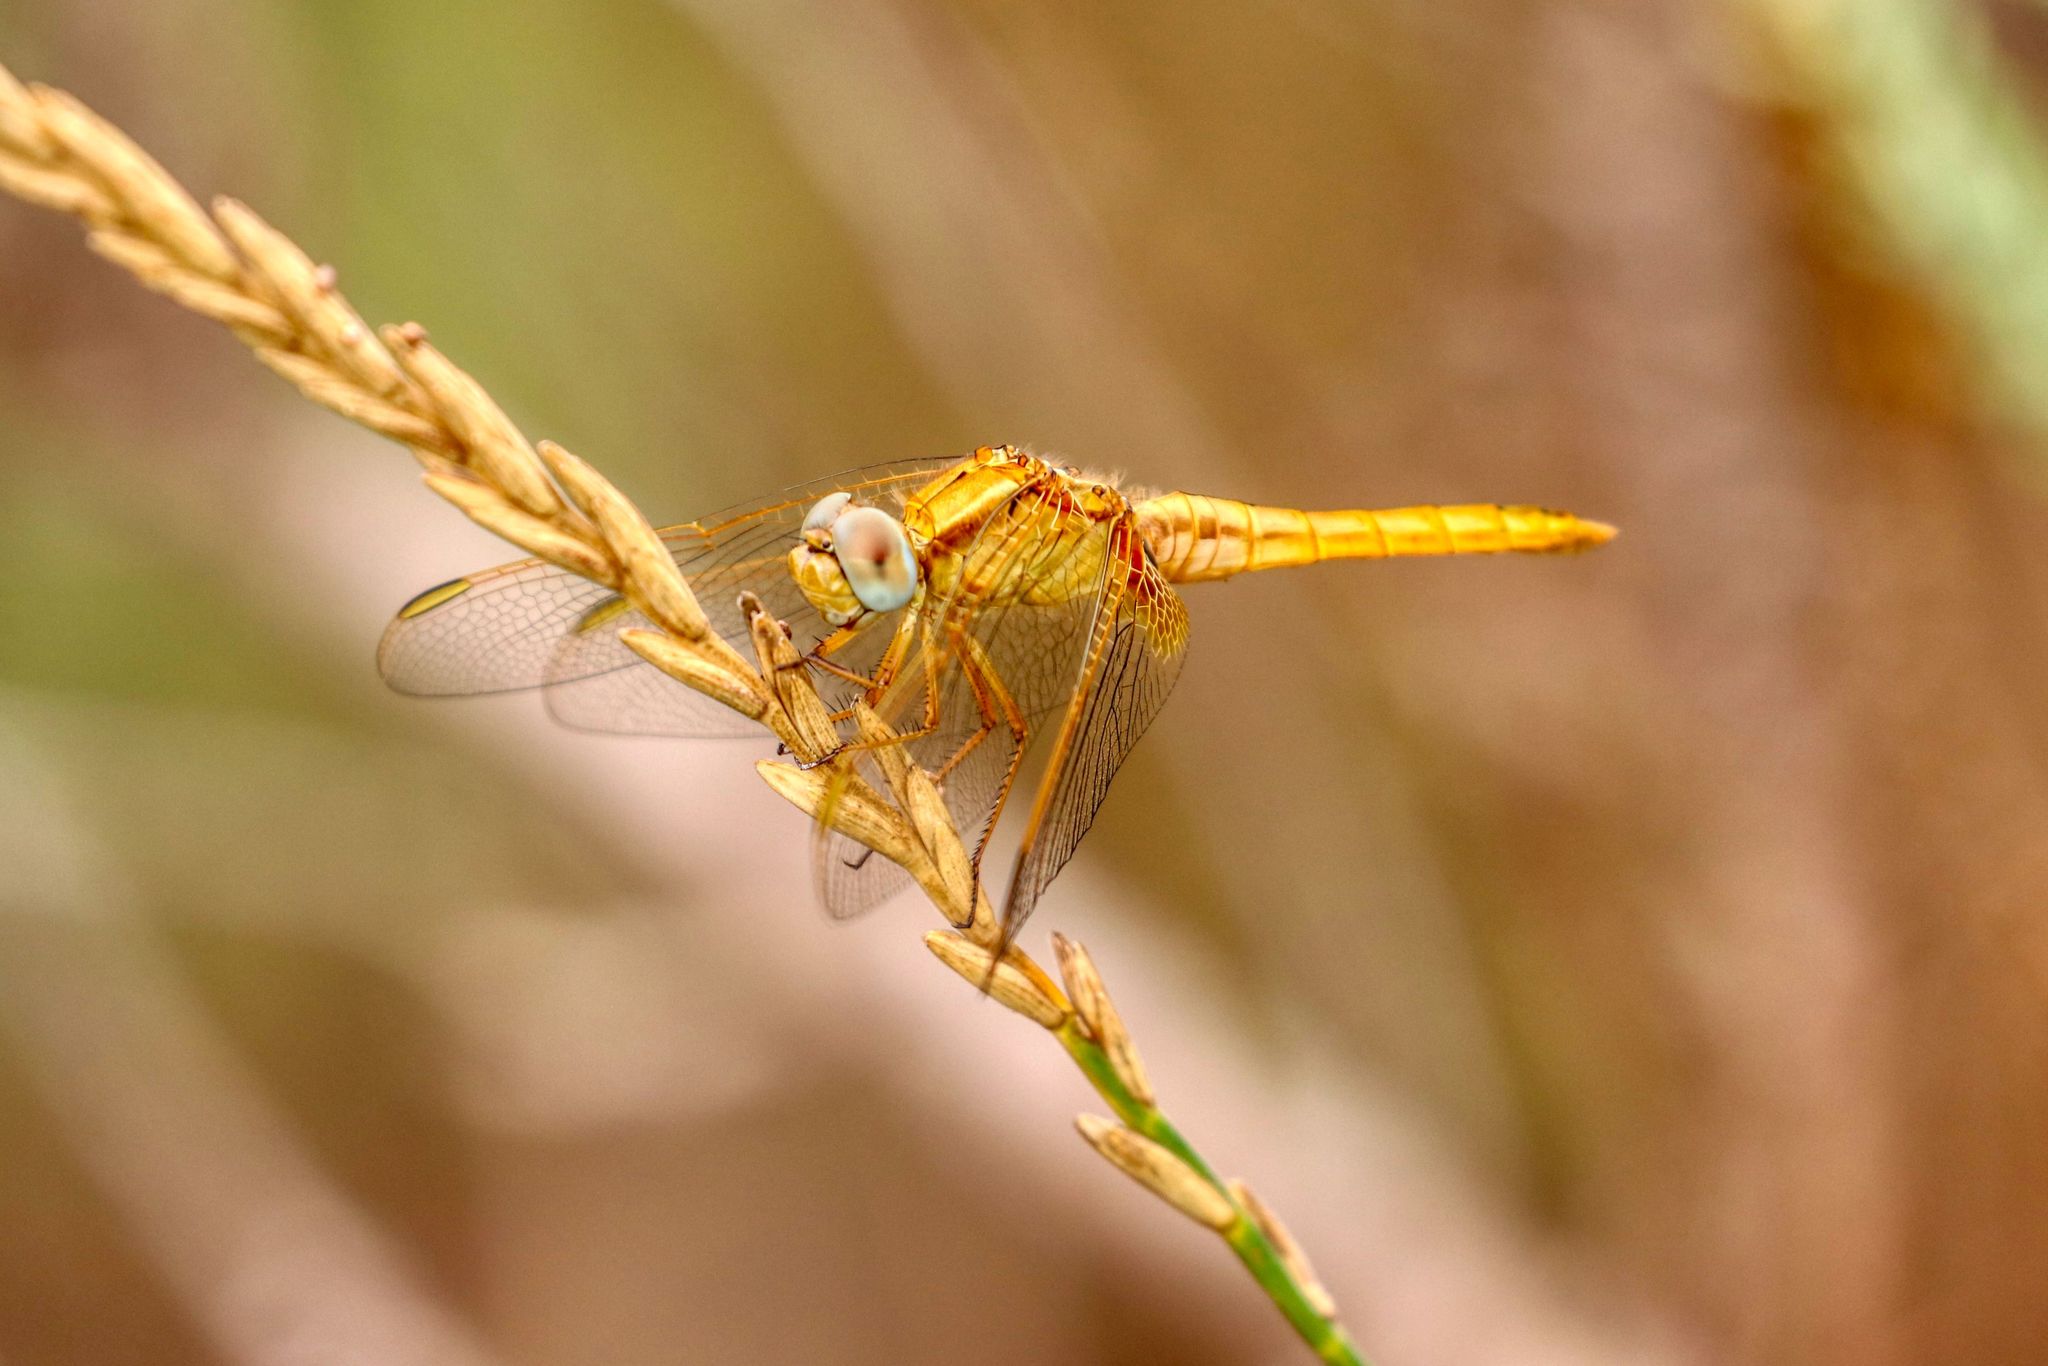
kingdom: Animalia
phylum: Arthropoda
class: Insecta
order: Odonata
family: Libellulidae
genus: Crocothemis
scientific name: Crocothemis erythraea
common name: Scarlet dragonfly
